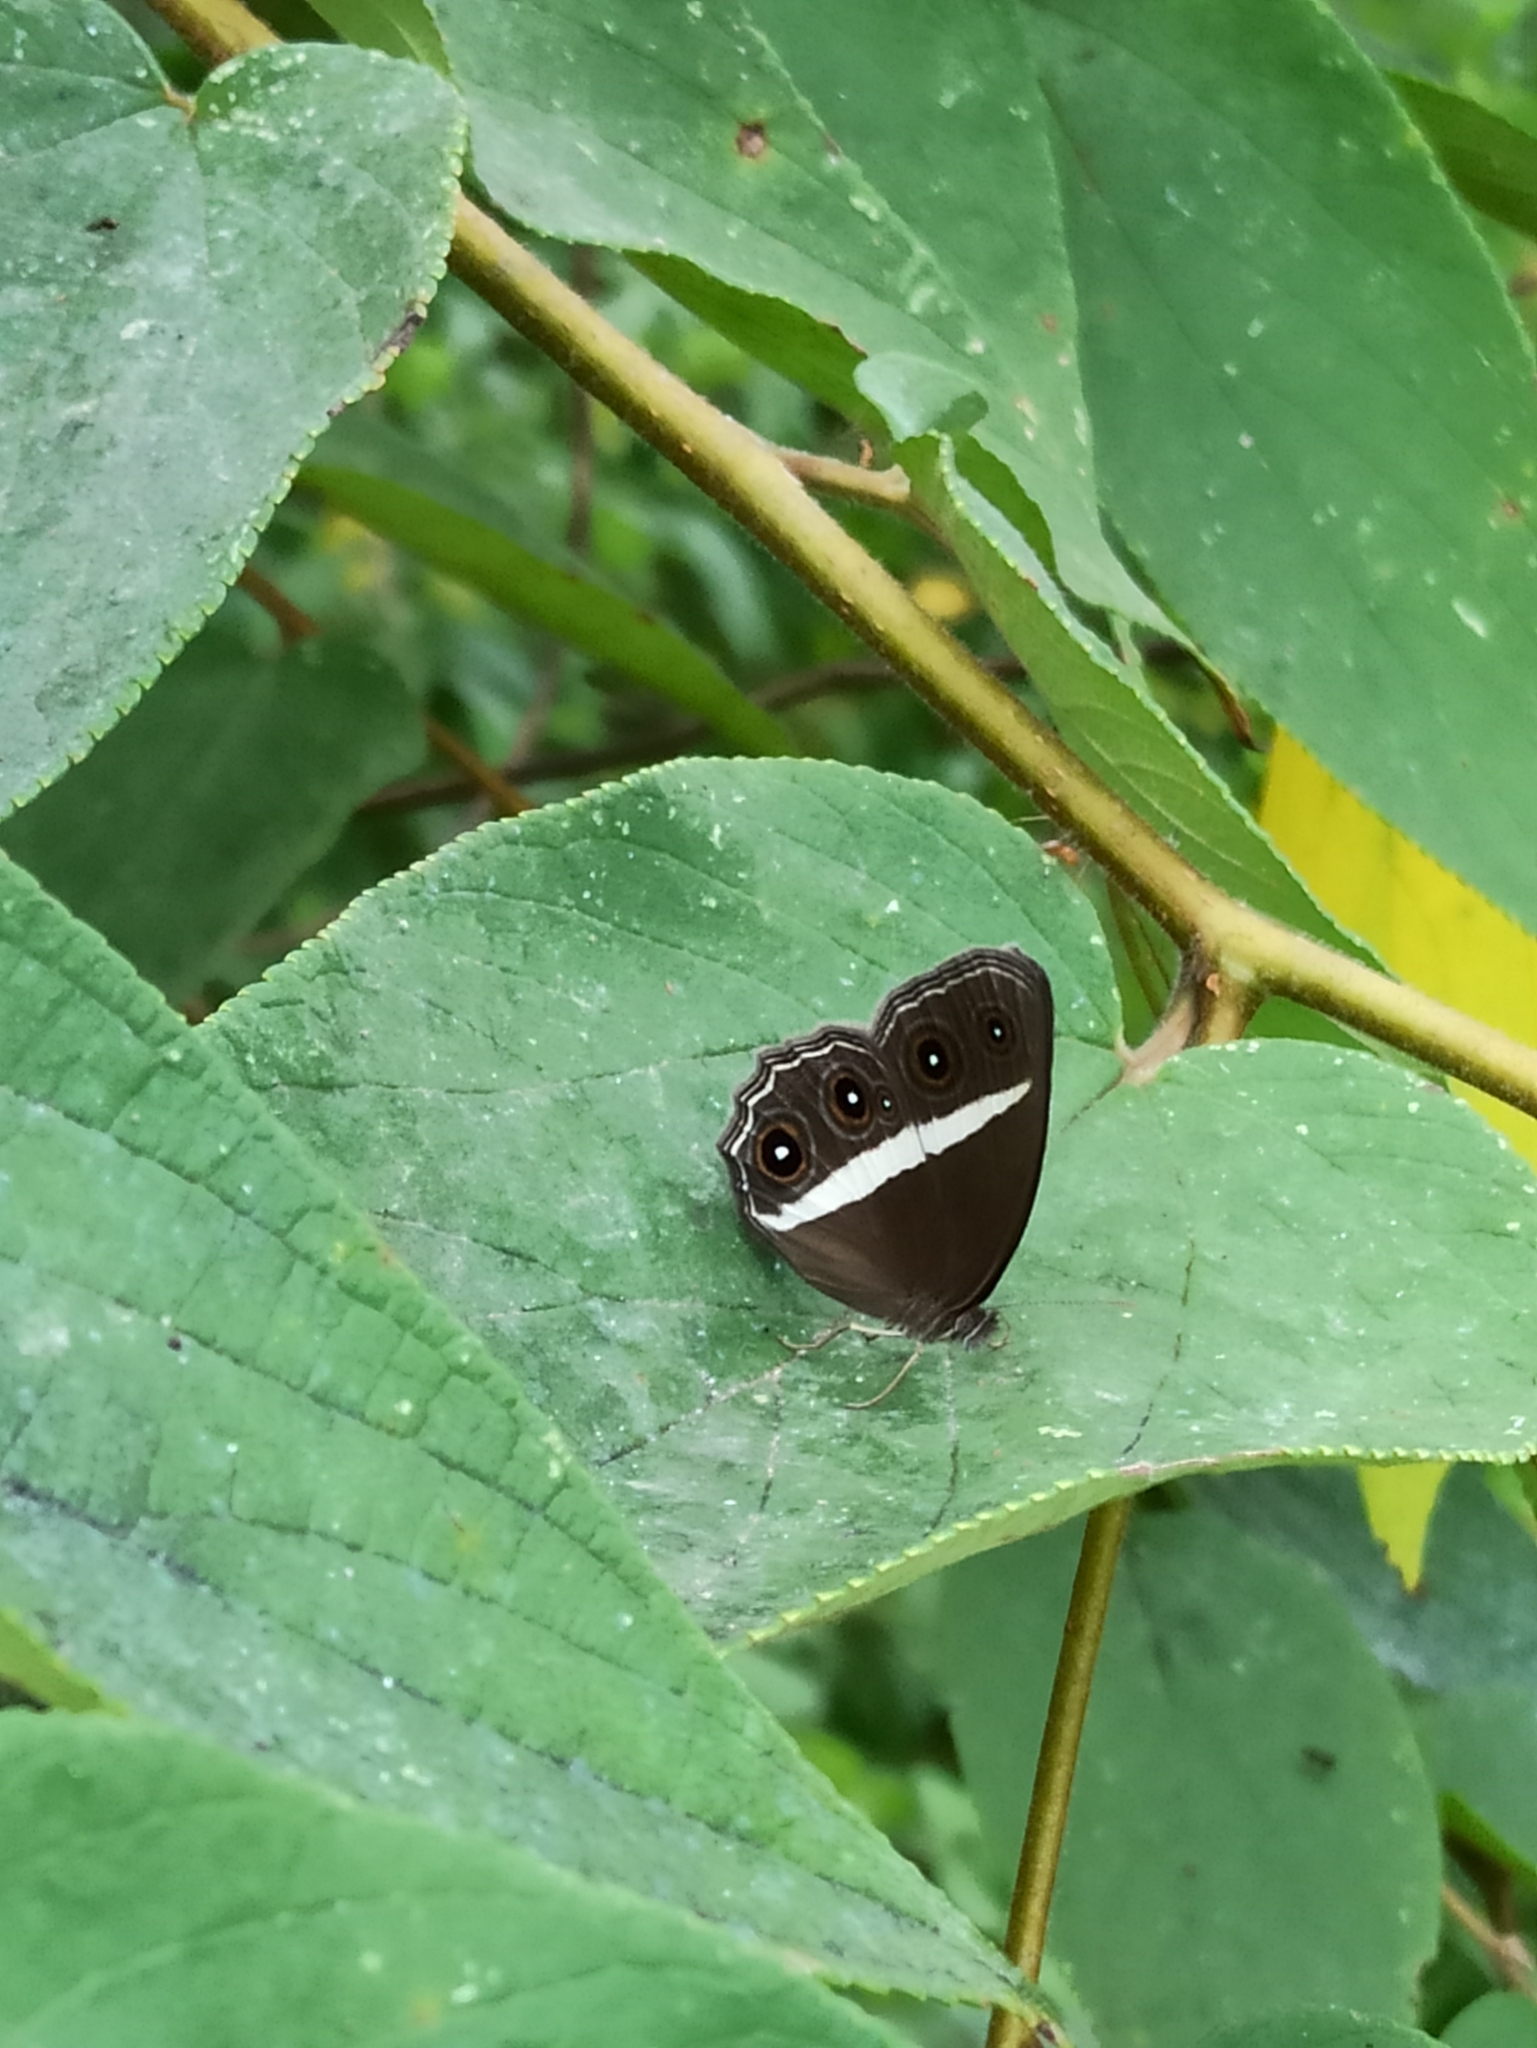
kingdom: Animalia
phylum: Arthropoda
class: Insecta
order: Lepidoptera
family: Nymphalidae
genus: Orsotriaena
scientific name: Orsotriaena medus
